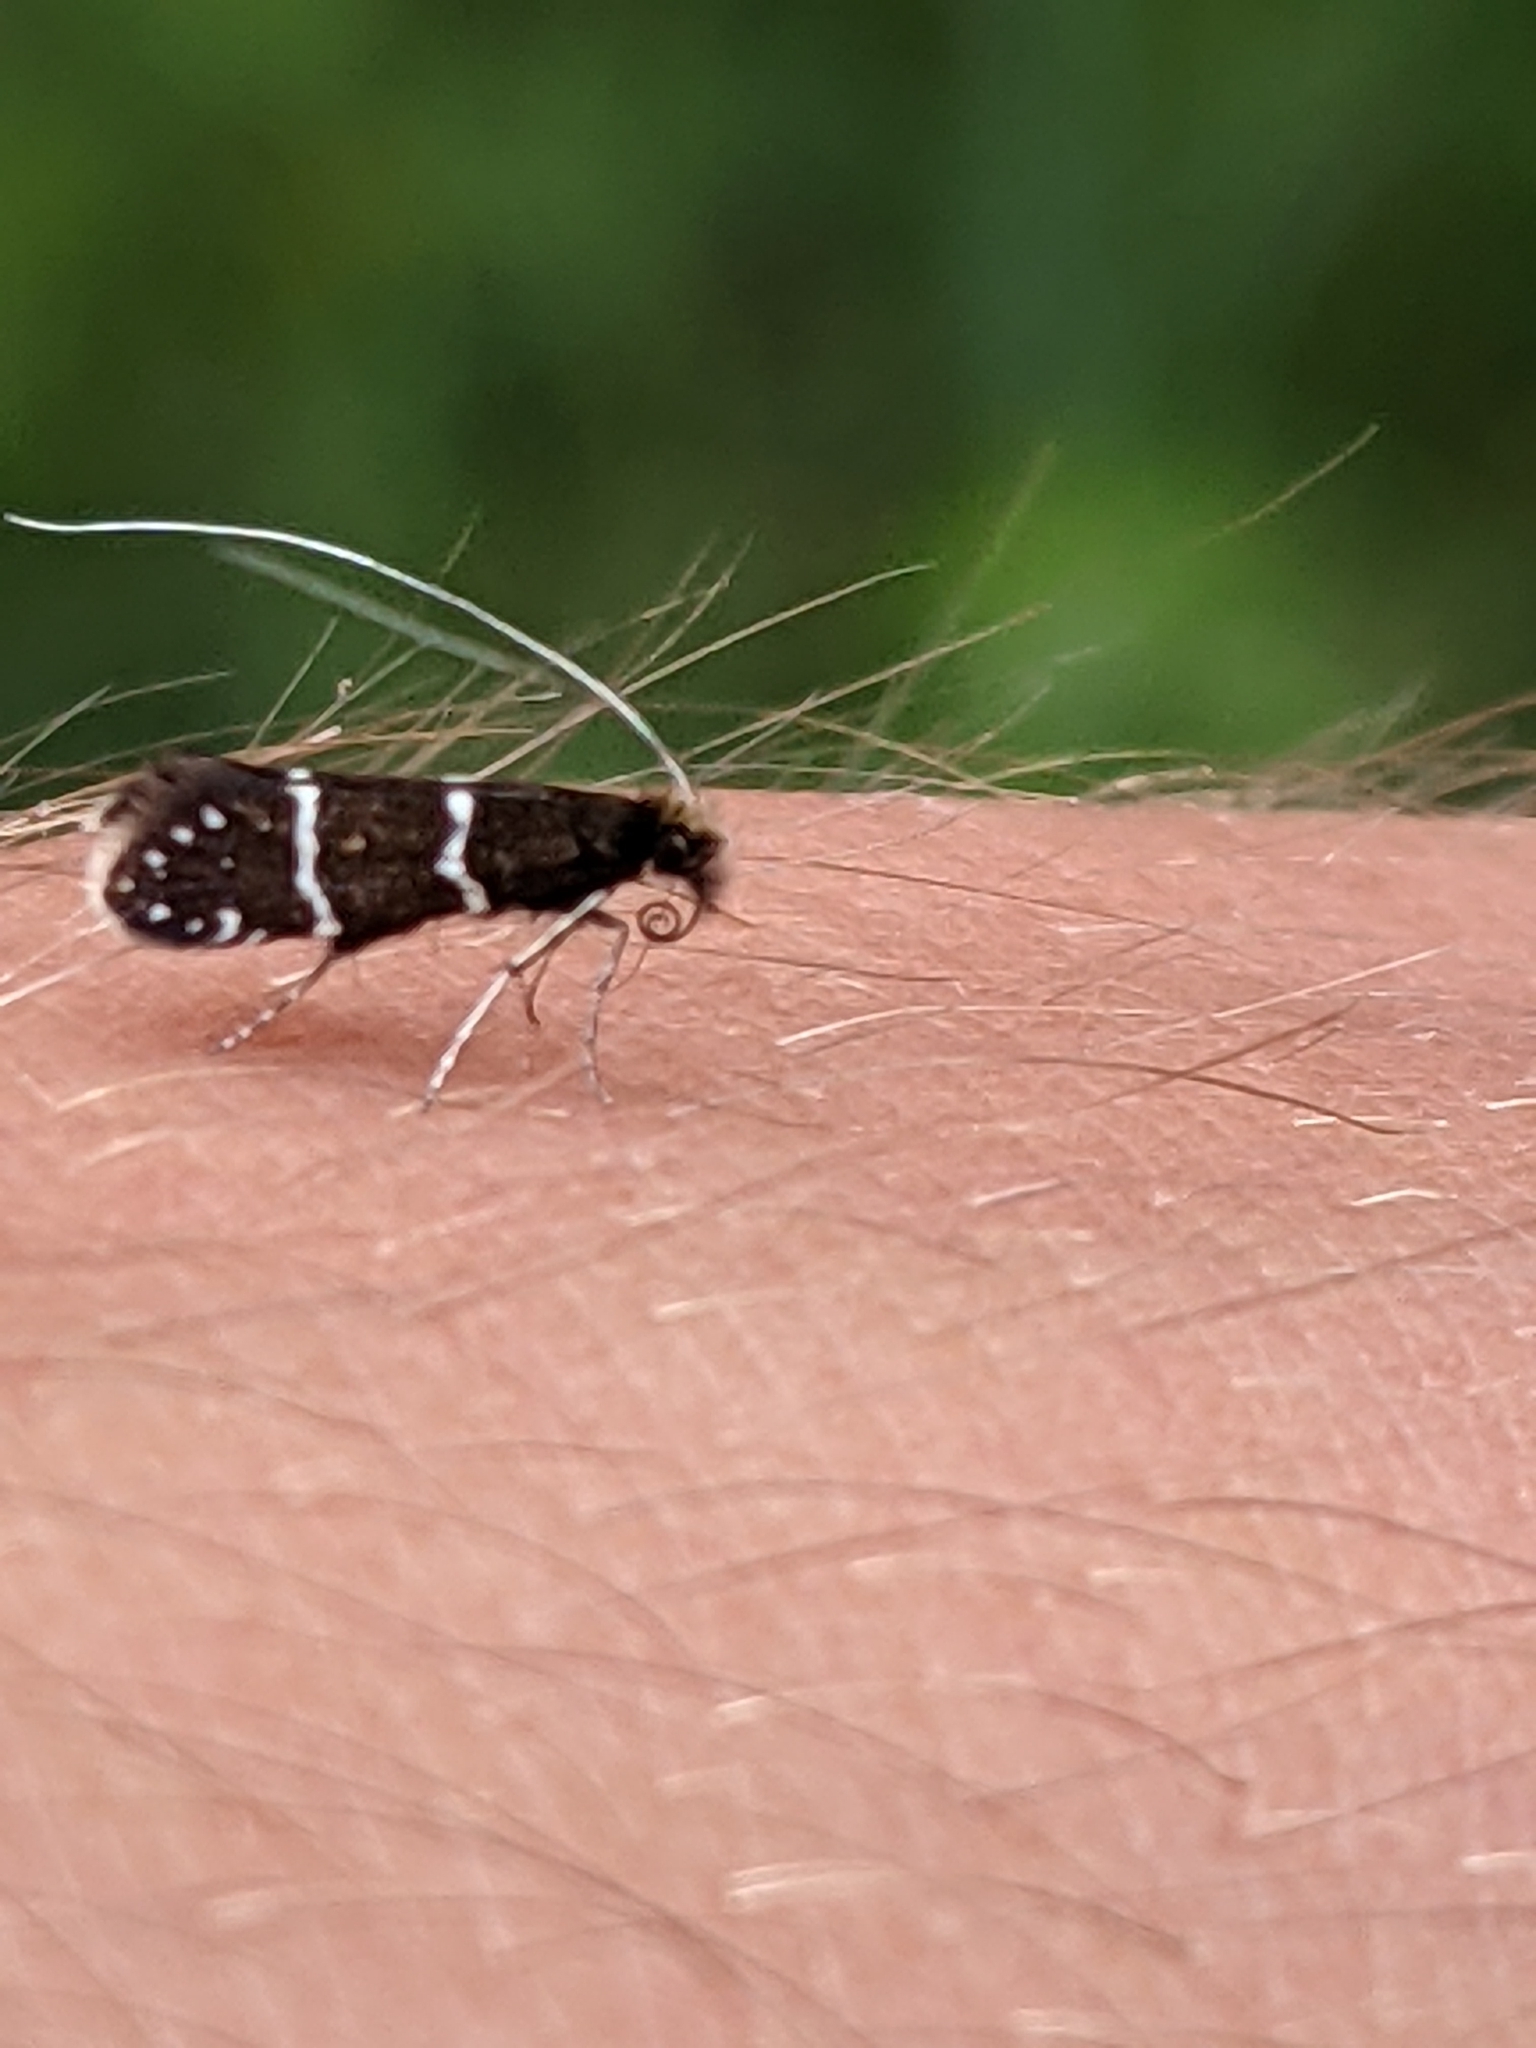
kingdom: Animalia
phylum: Arthropoda
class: Insecta
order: Lepidoptera
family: Adelidae
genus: Adela
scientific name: Adela septentrionella
